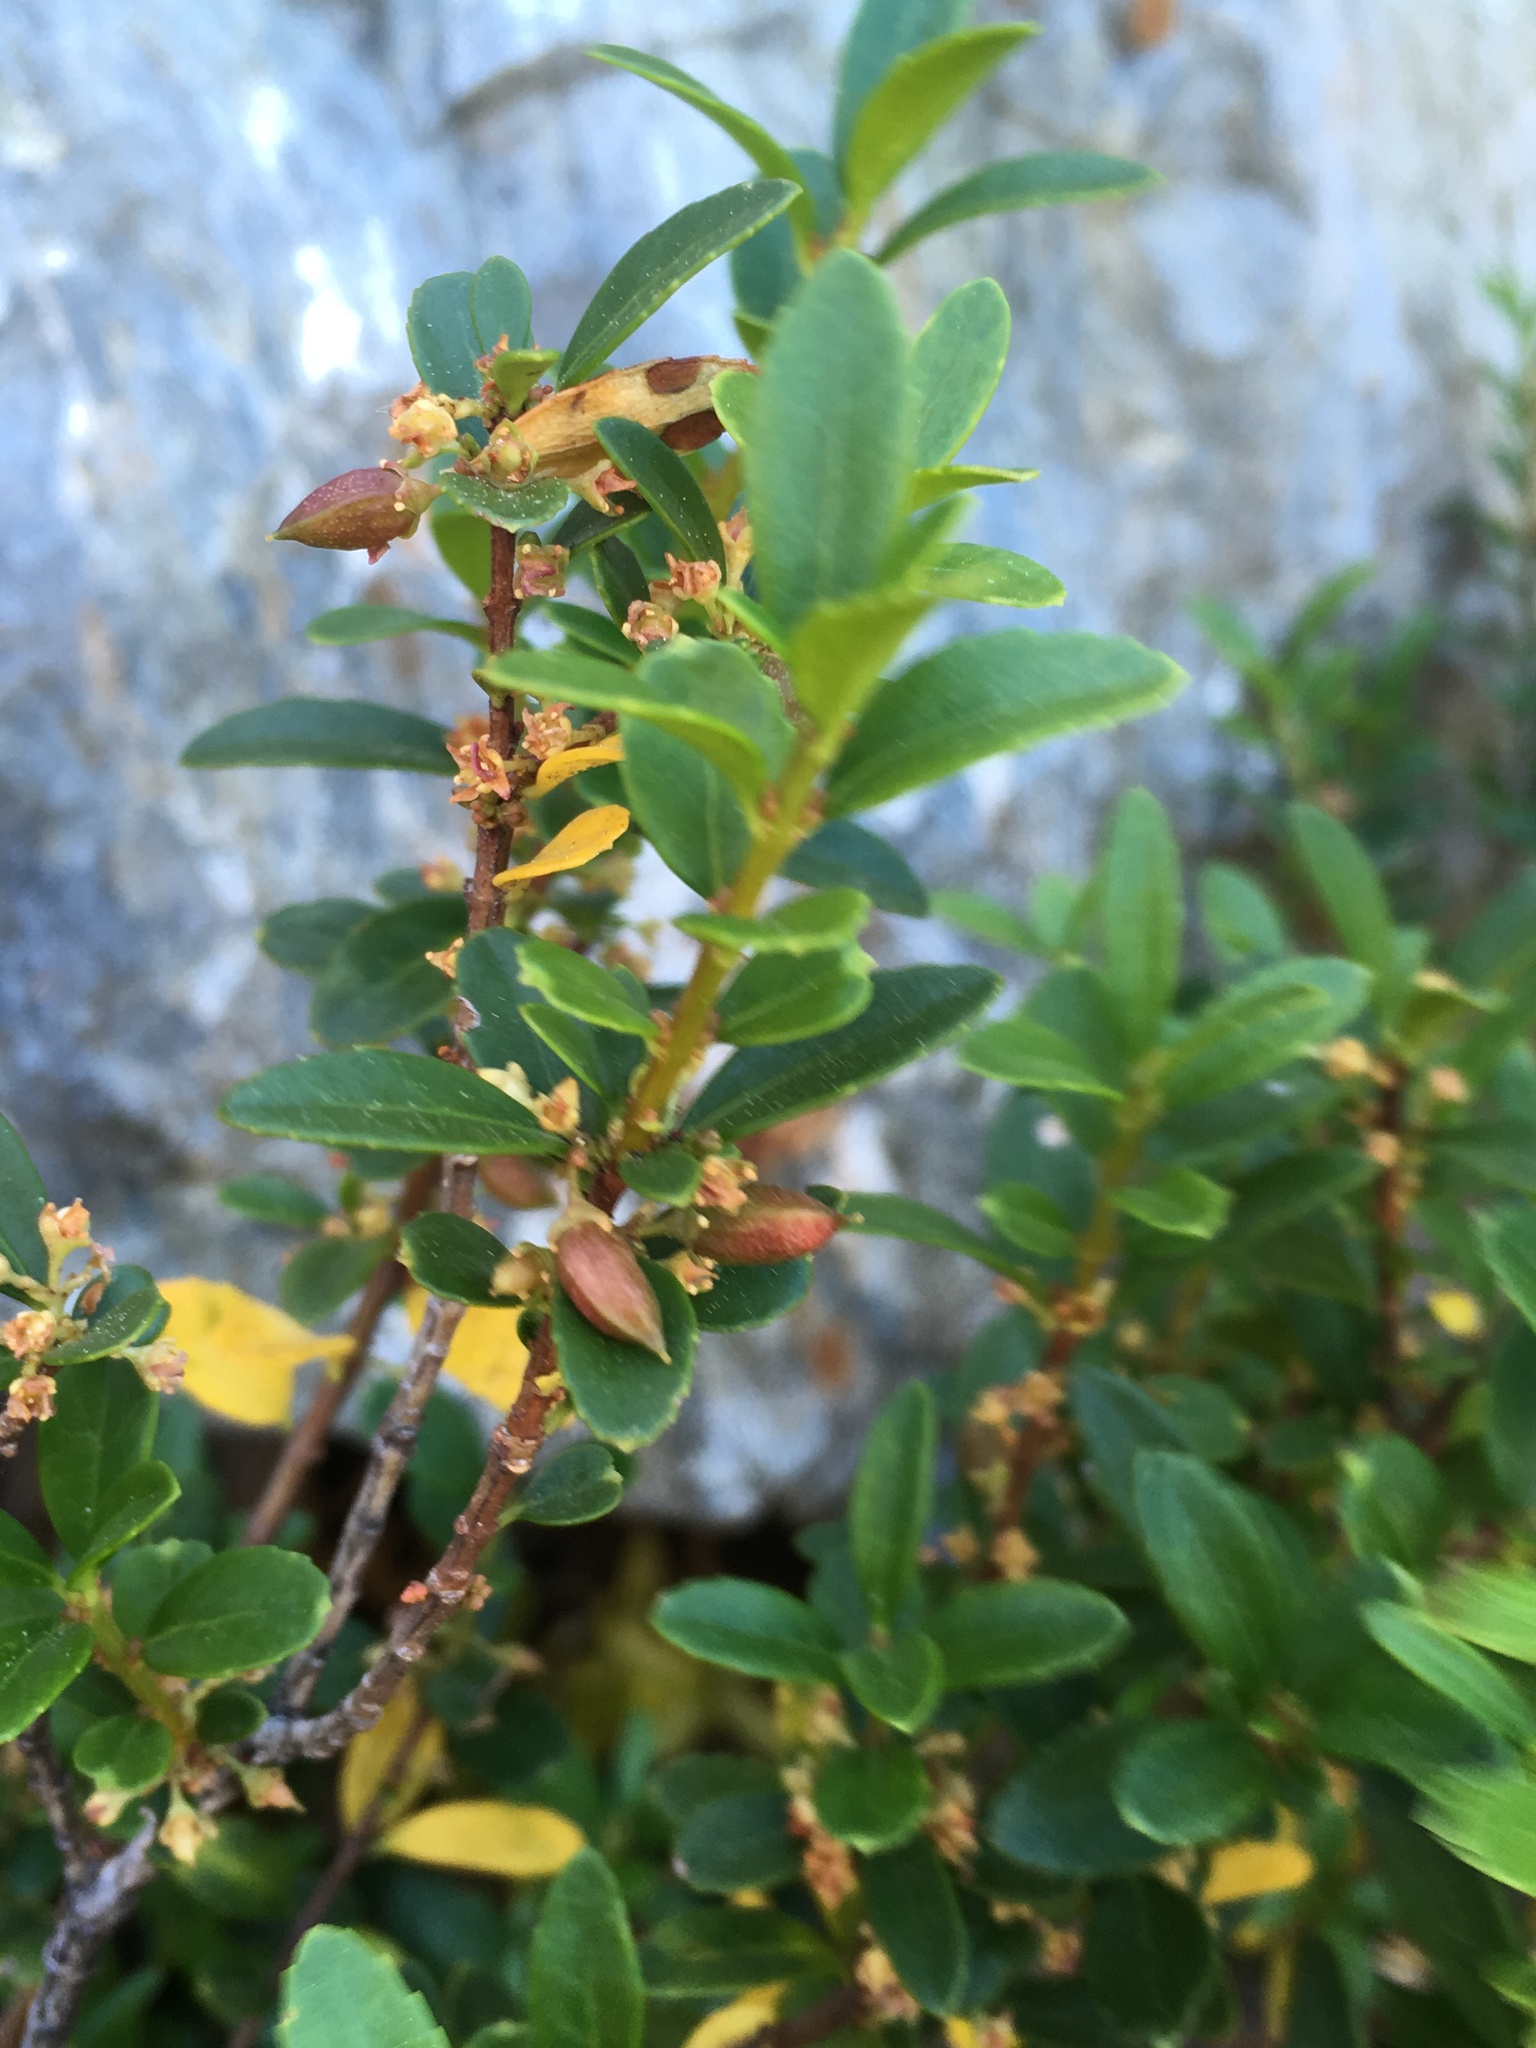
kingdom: Plantae
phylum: Tracheophyta
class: Magnoliopsida
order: Celastrales
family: Celastraceae
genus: Paxistima
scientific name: Paxistima myrsinites
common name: Mountain-lover
